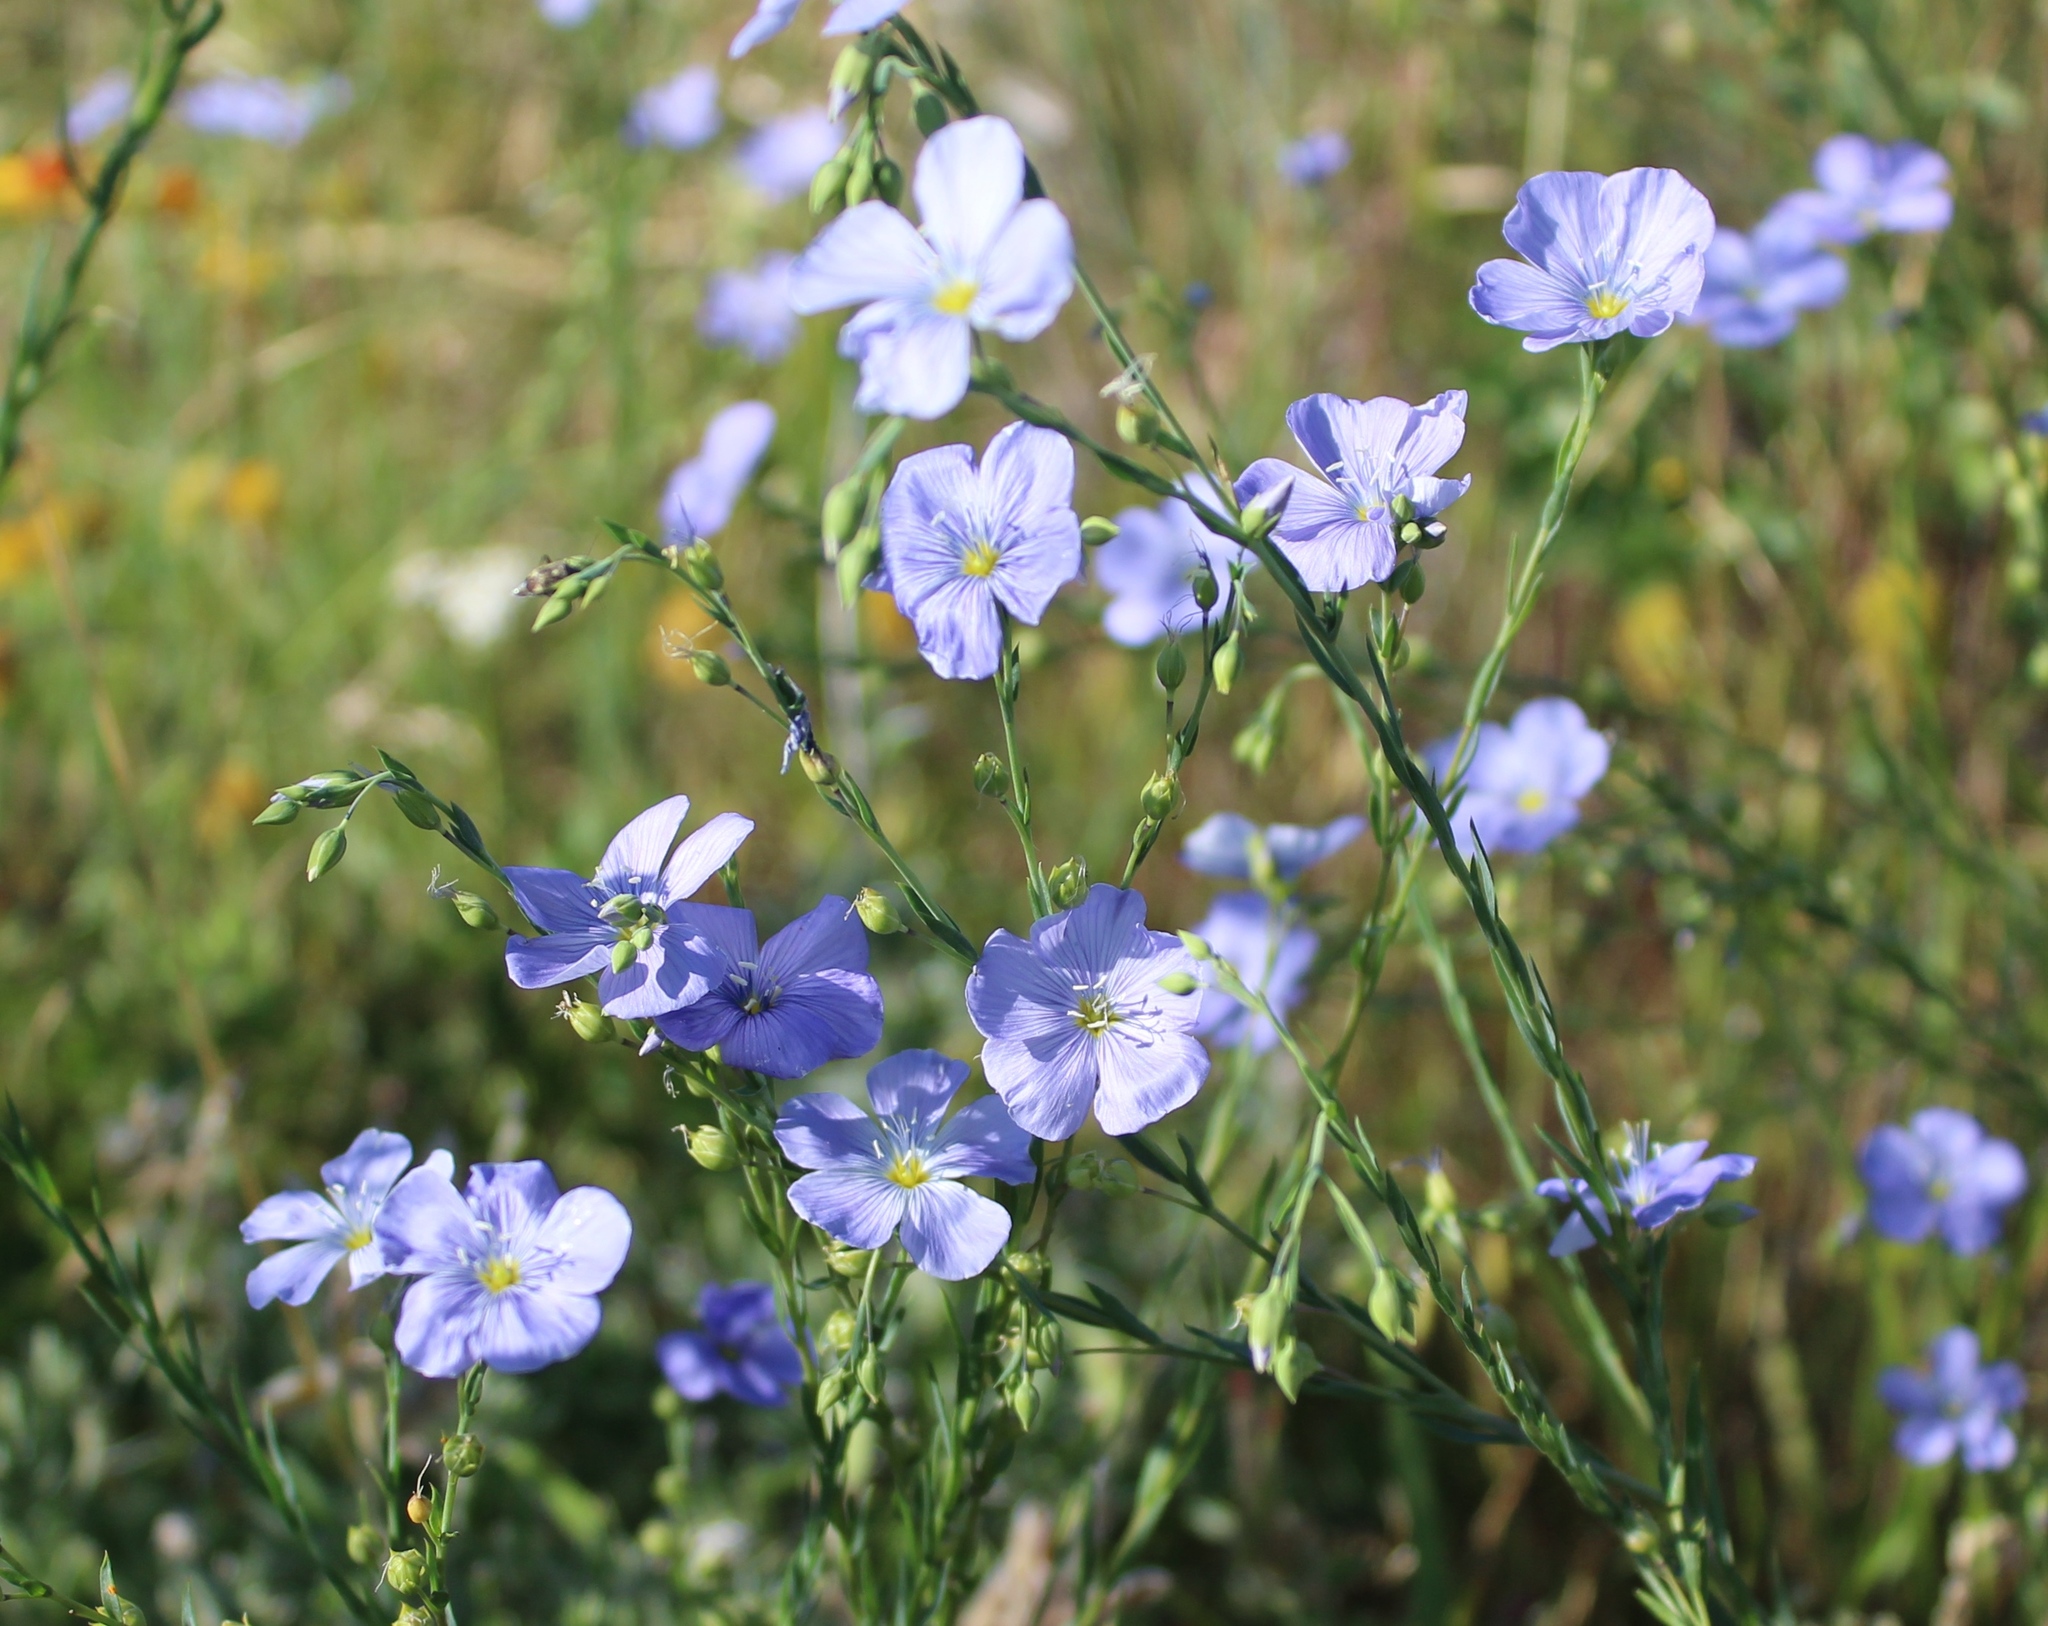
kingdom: Plantae
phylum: Tracheophyta
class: Magnoliopsida
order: Malpighiales
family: Linaceae
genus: Linum
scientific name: Linum lewisii
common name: Prairie flax
